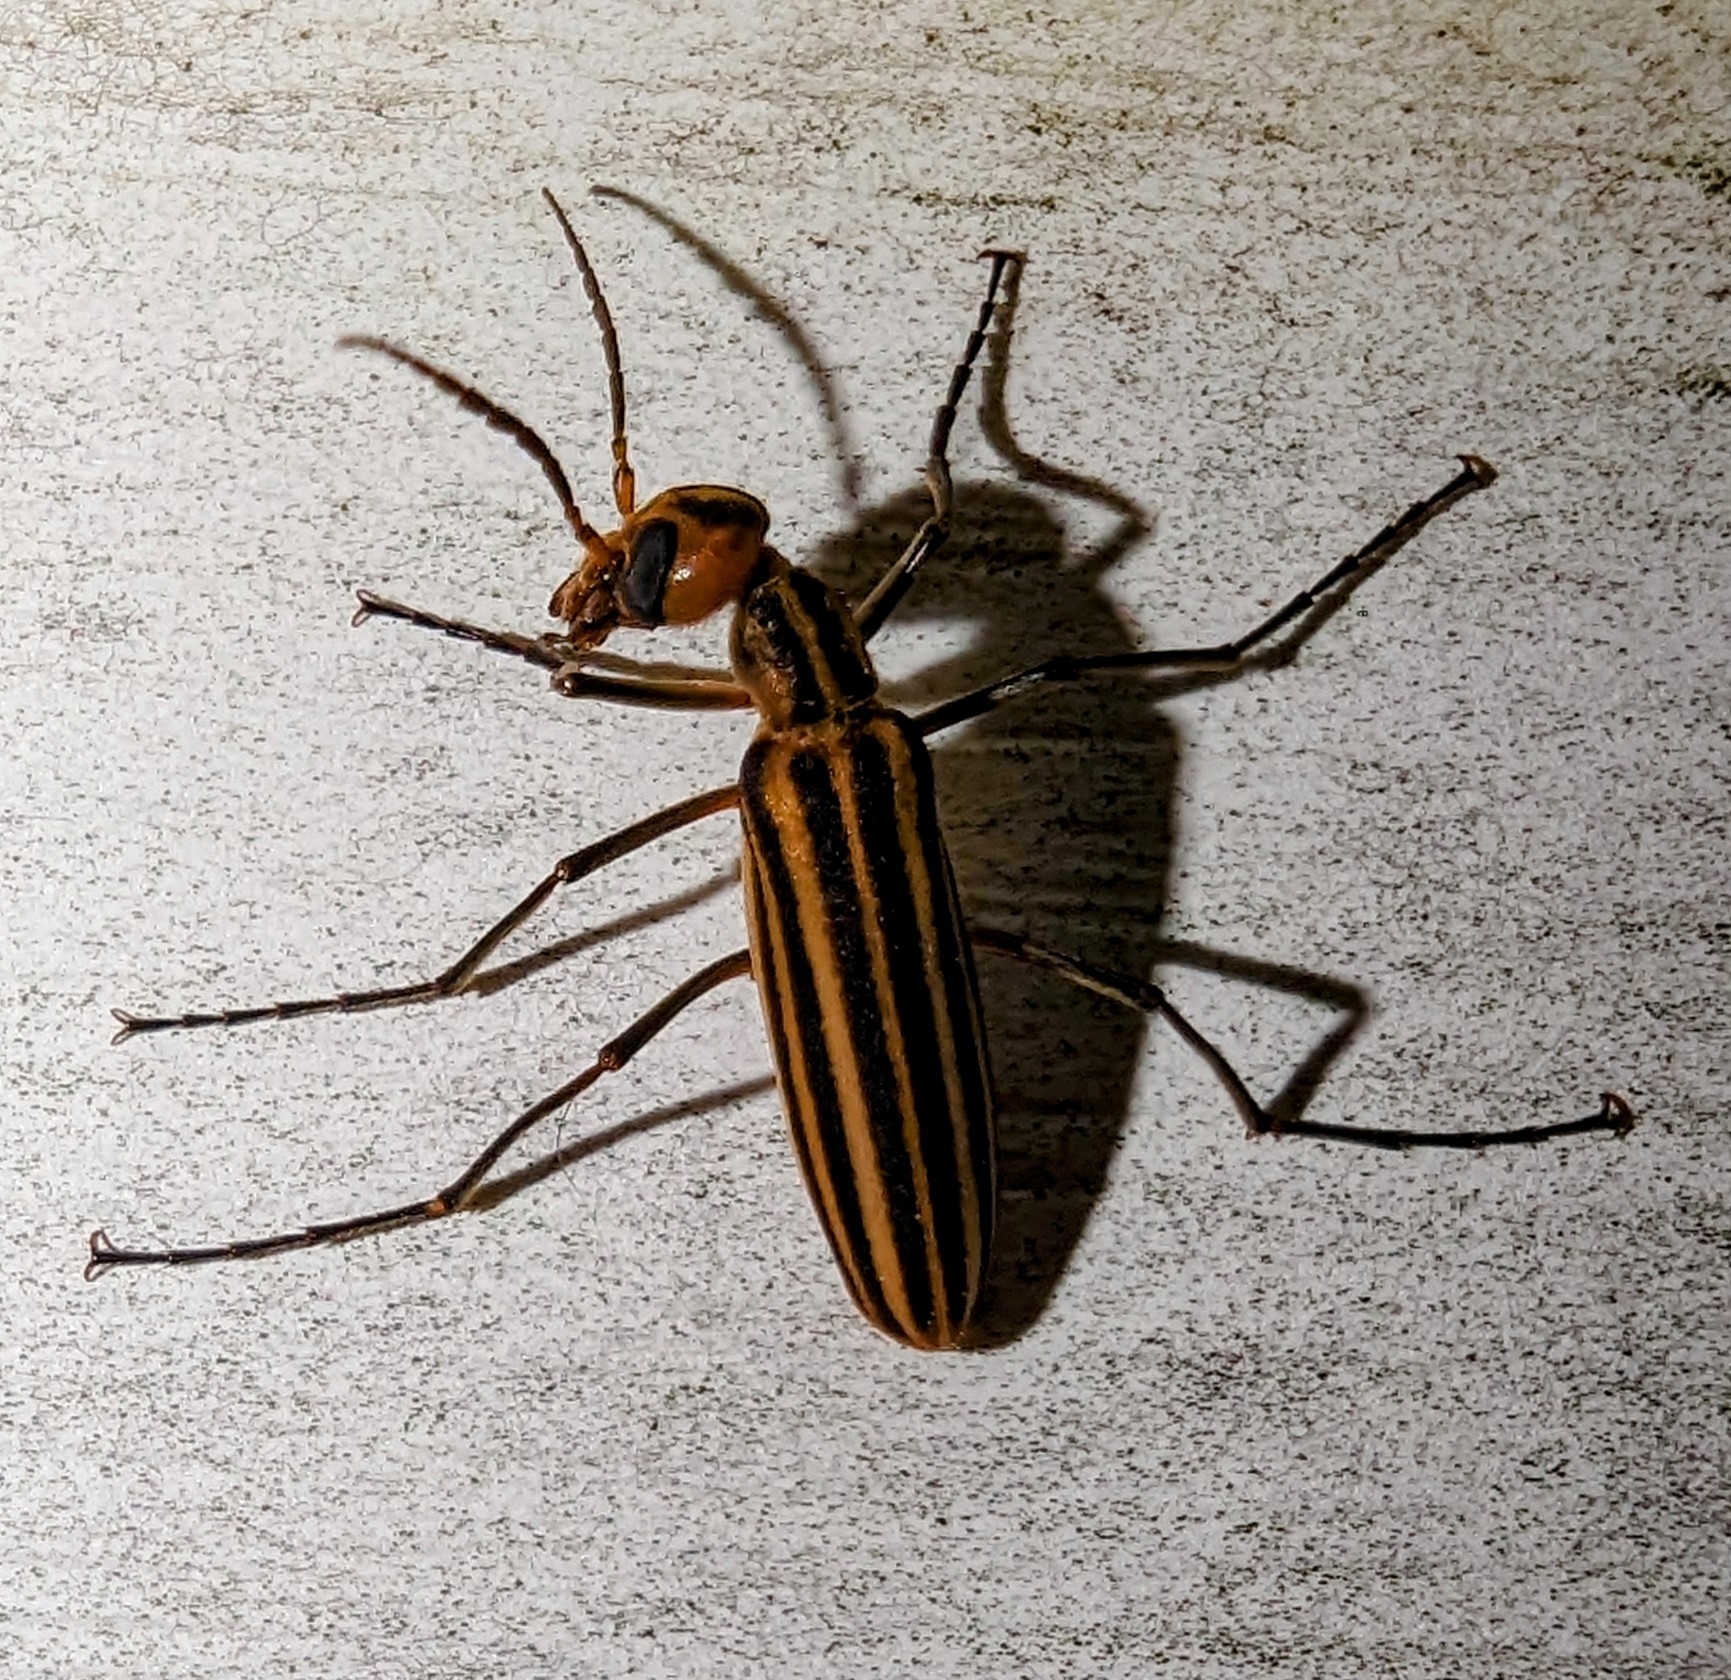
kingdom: Animalia
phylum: Arthropoda
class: Insecta
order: Coleoptera
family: Meloidae
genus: Epicauta
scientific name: Epicauta vittata
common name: Old-fashioned potato beetle
